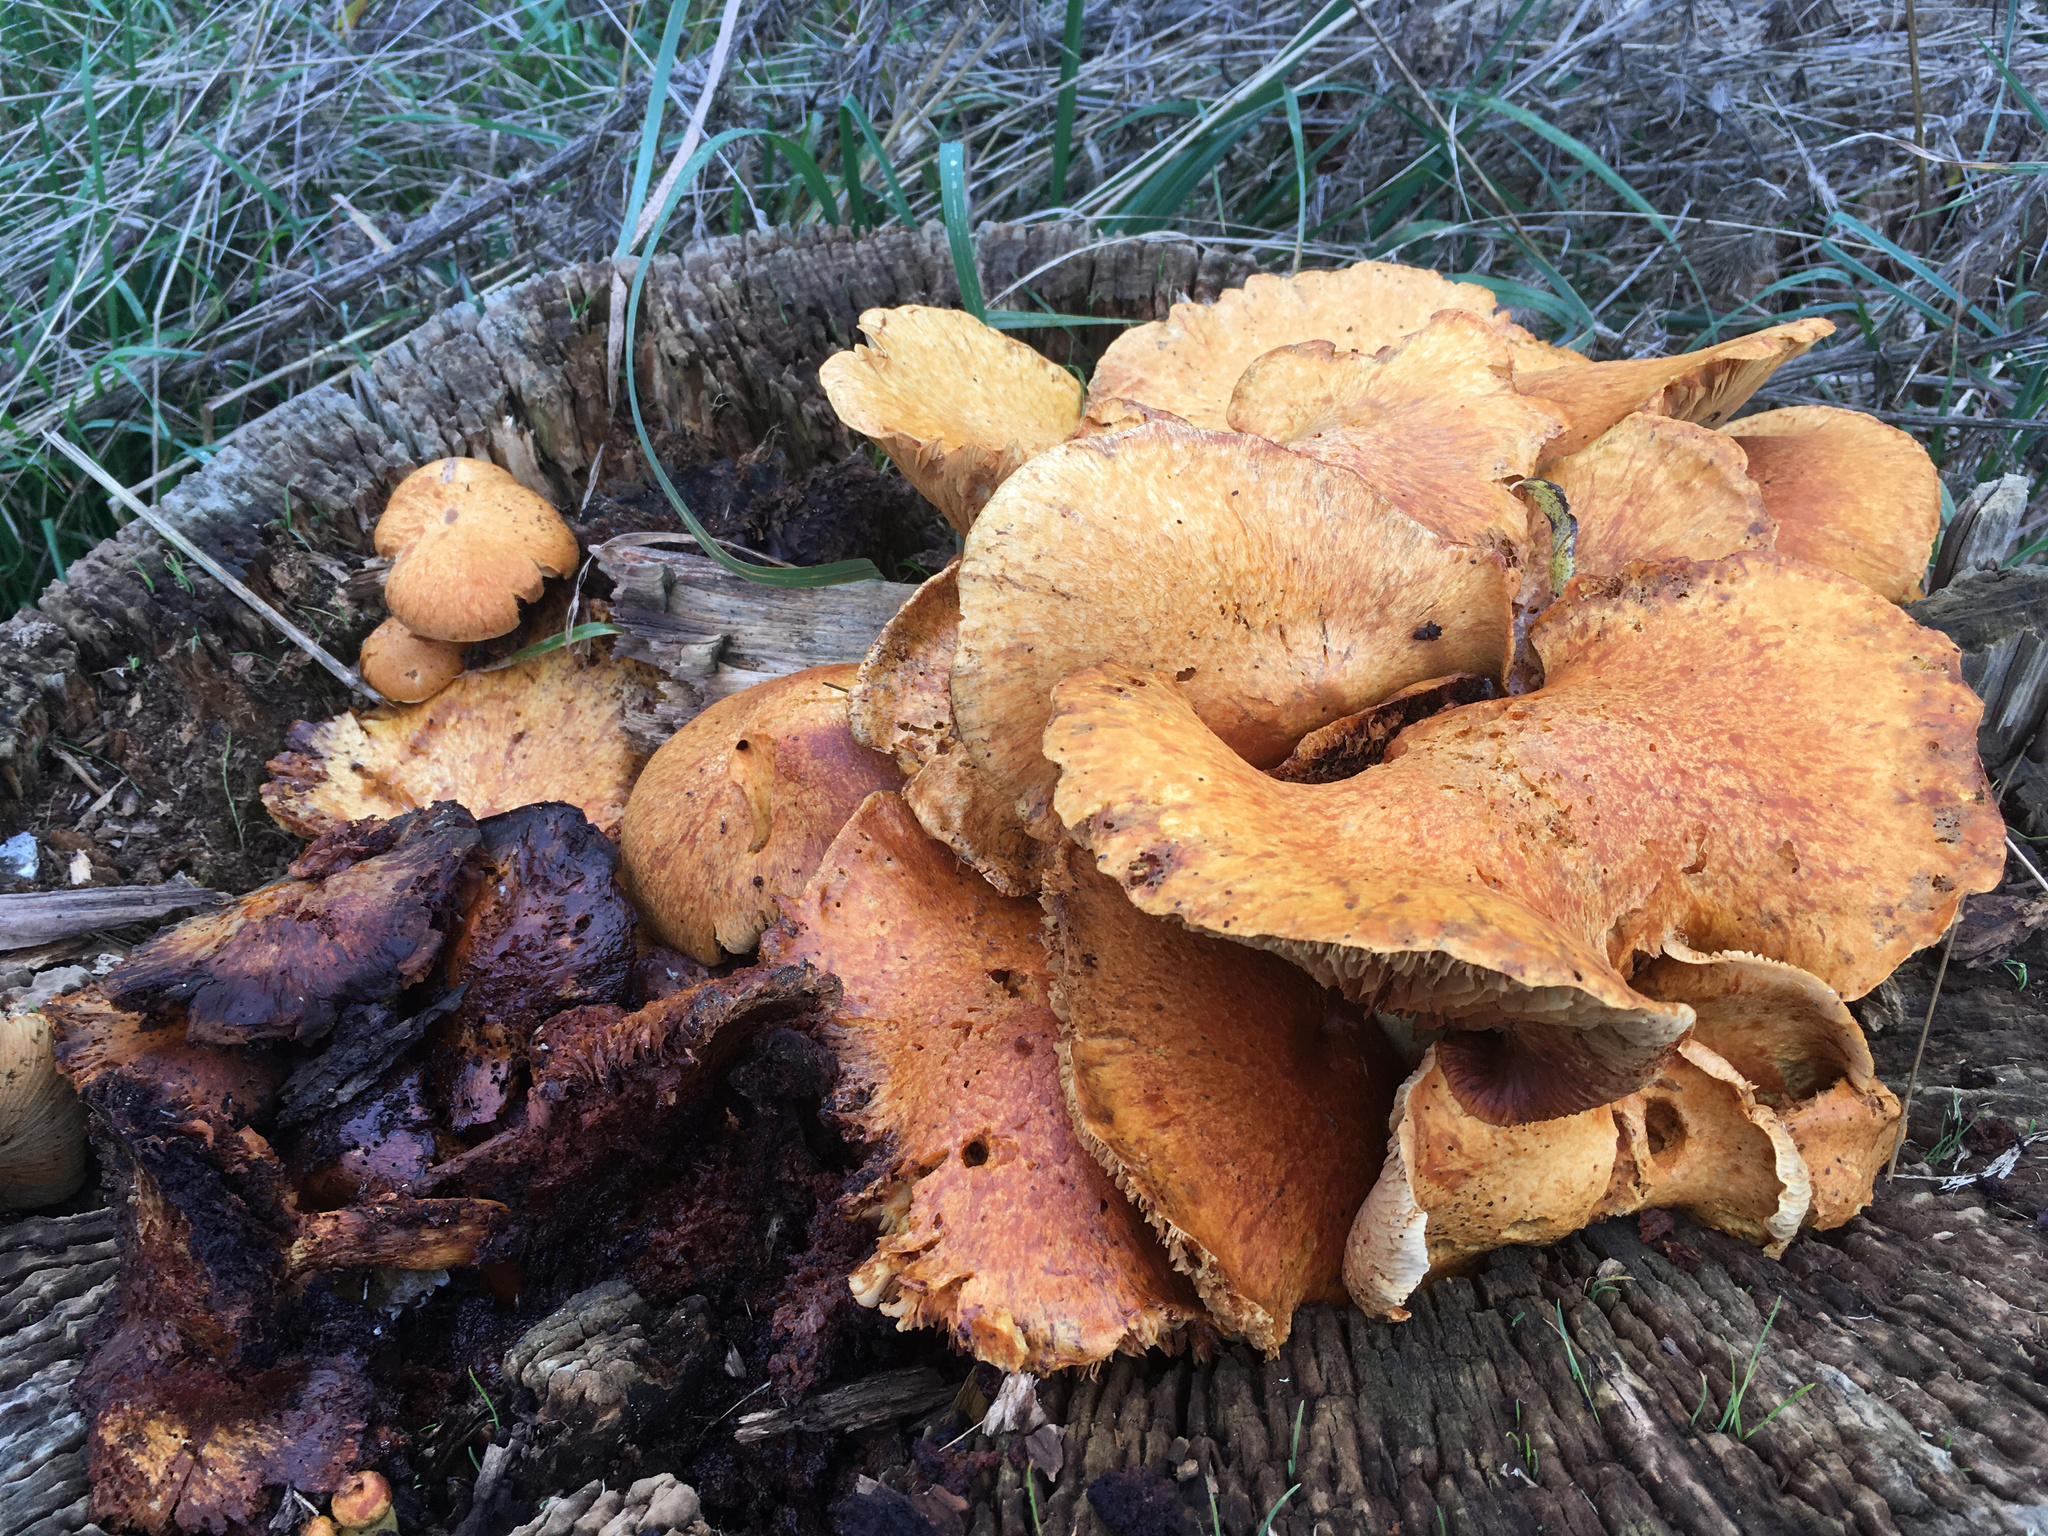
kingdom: Fungi
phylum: Basidiomycota
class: Agaricomycetes
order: Agaricales
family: Hymenogastraceae
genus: Gymnopilus
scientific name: Gymnopilus junonius
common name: Spectacular rustgill
